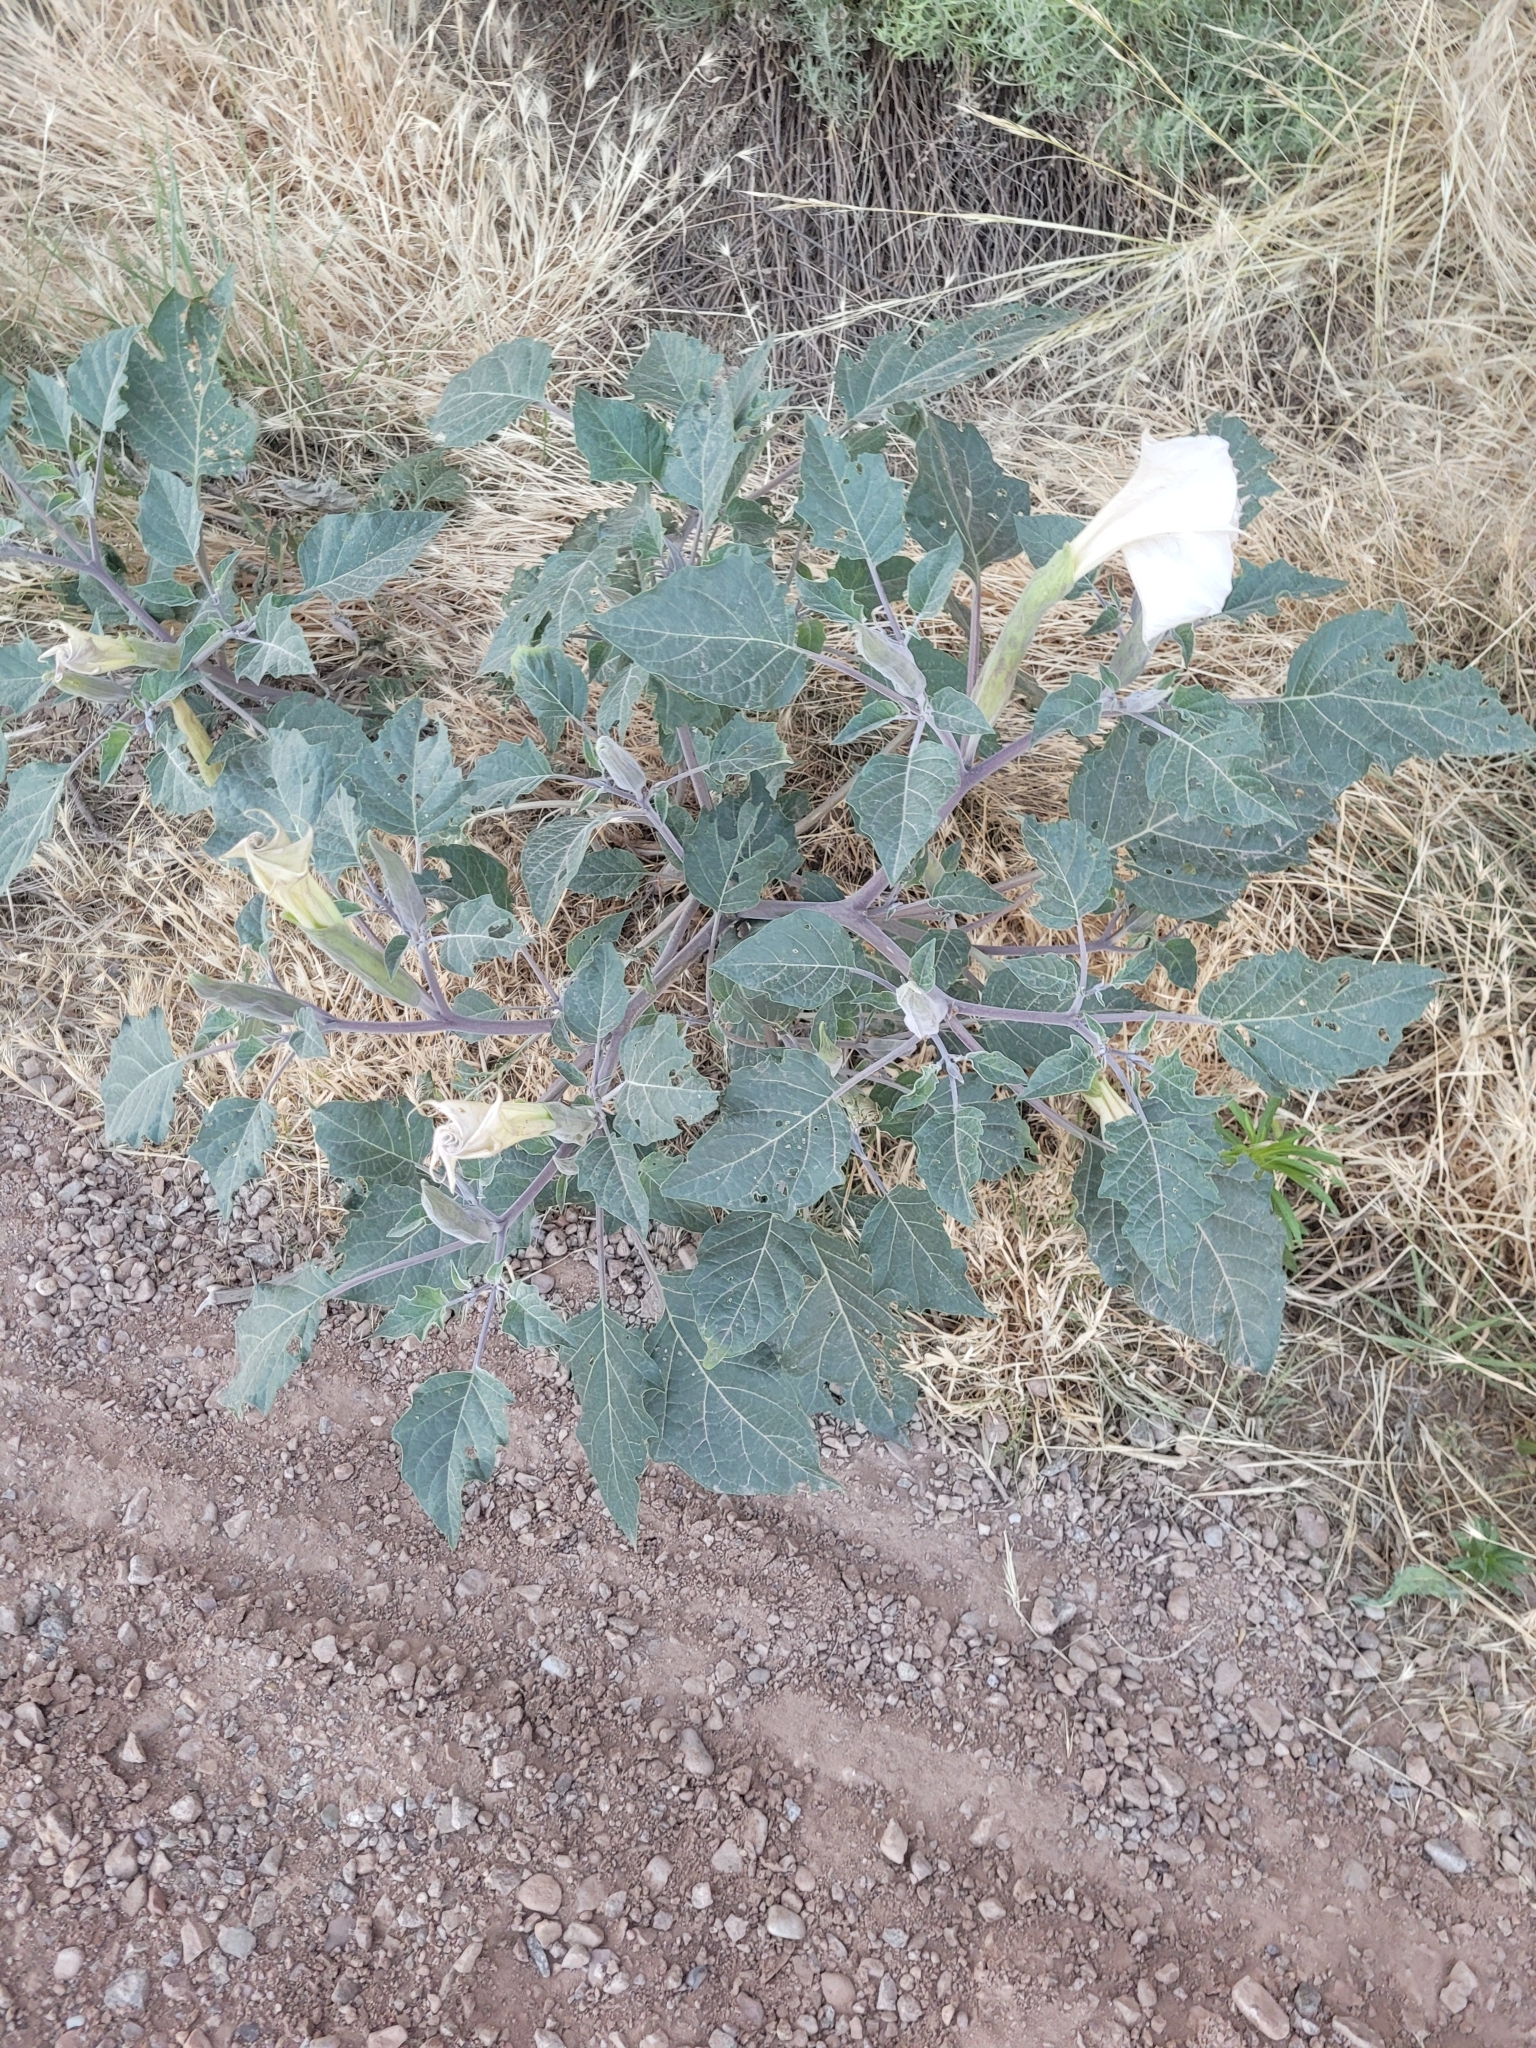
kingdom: Plantae
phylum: Tracheophyta
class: Magnoliopsida
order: Solanales
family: Solanaceae
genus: Datura
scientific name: Datura wrightii
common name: Sacred thorn-apple
